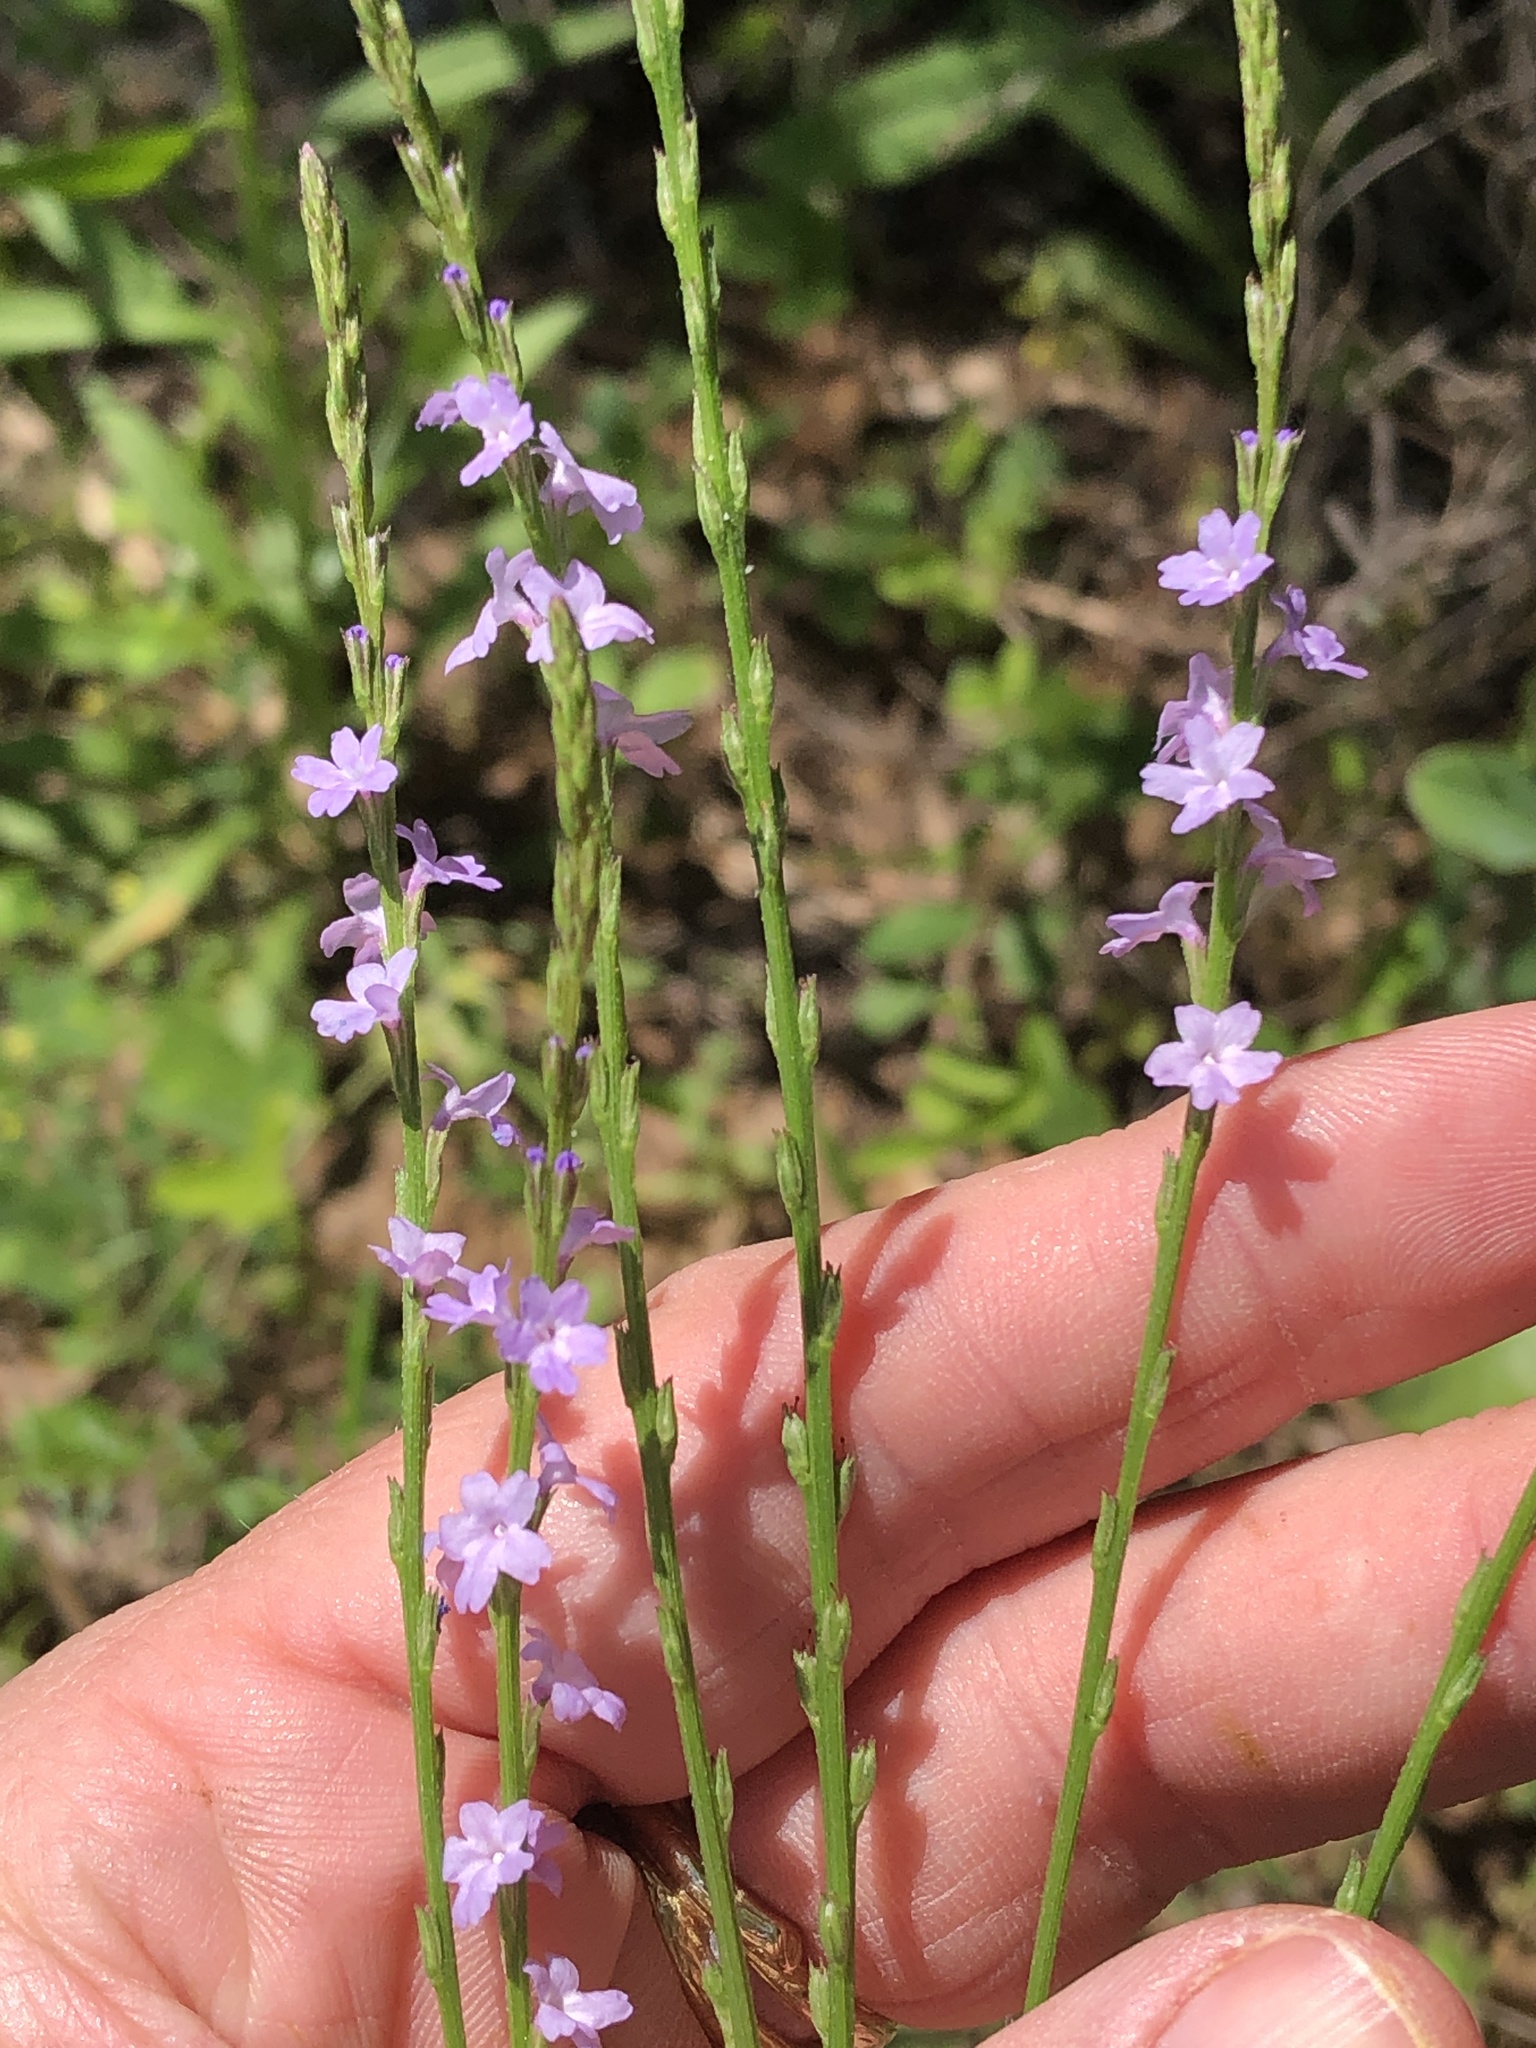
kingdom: Plantae
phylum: Tracheophyta
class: Magnoliopsida
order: Lamiales
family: Verbenaceae
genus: Verbena
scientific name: Verbena halei
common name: Texas vervain
